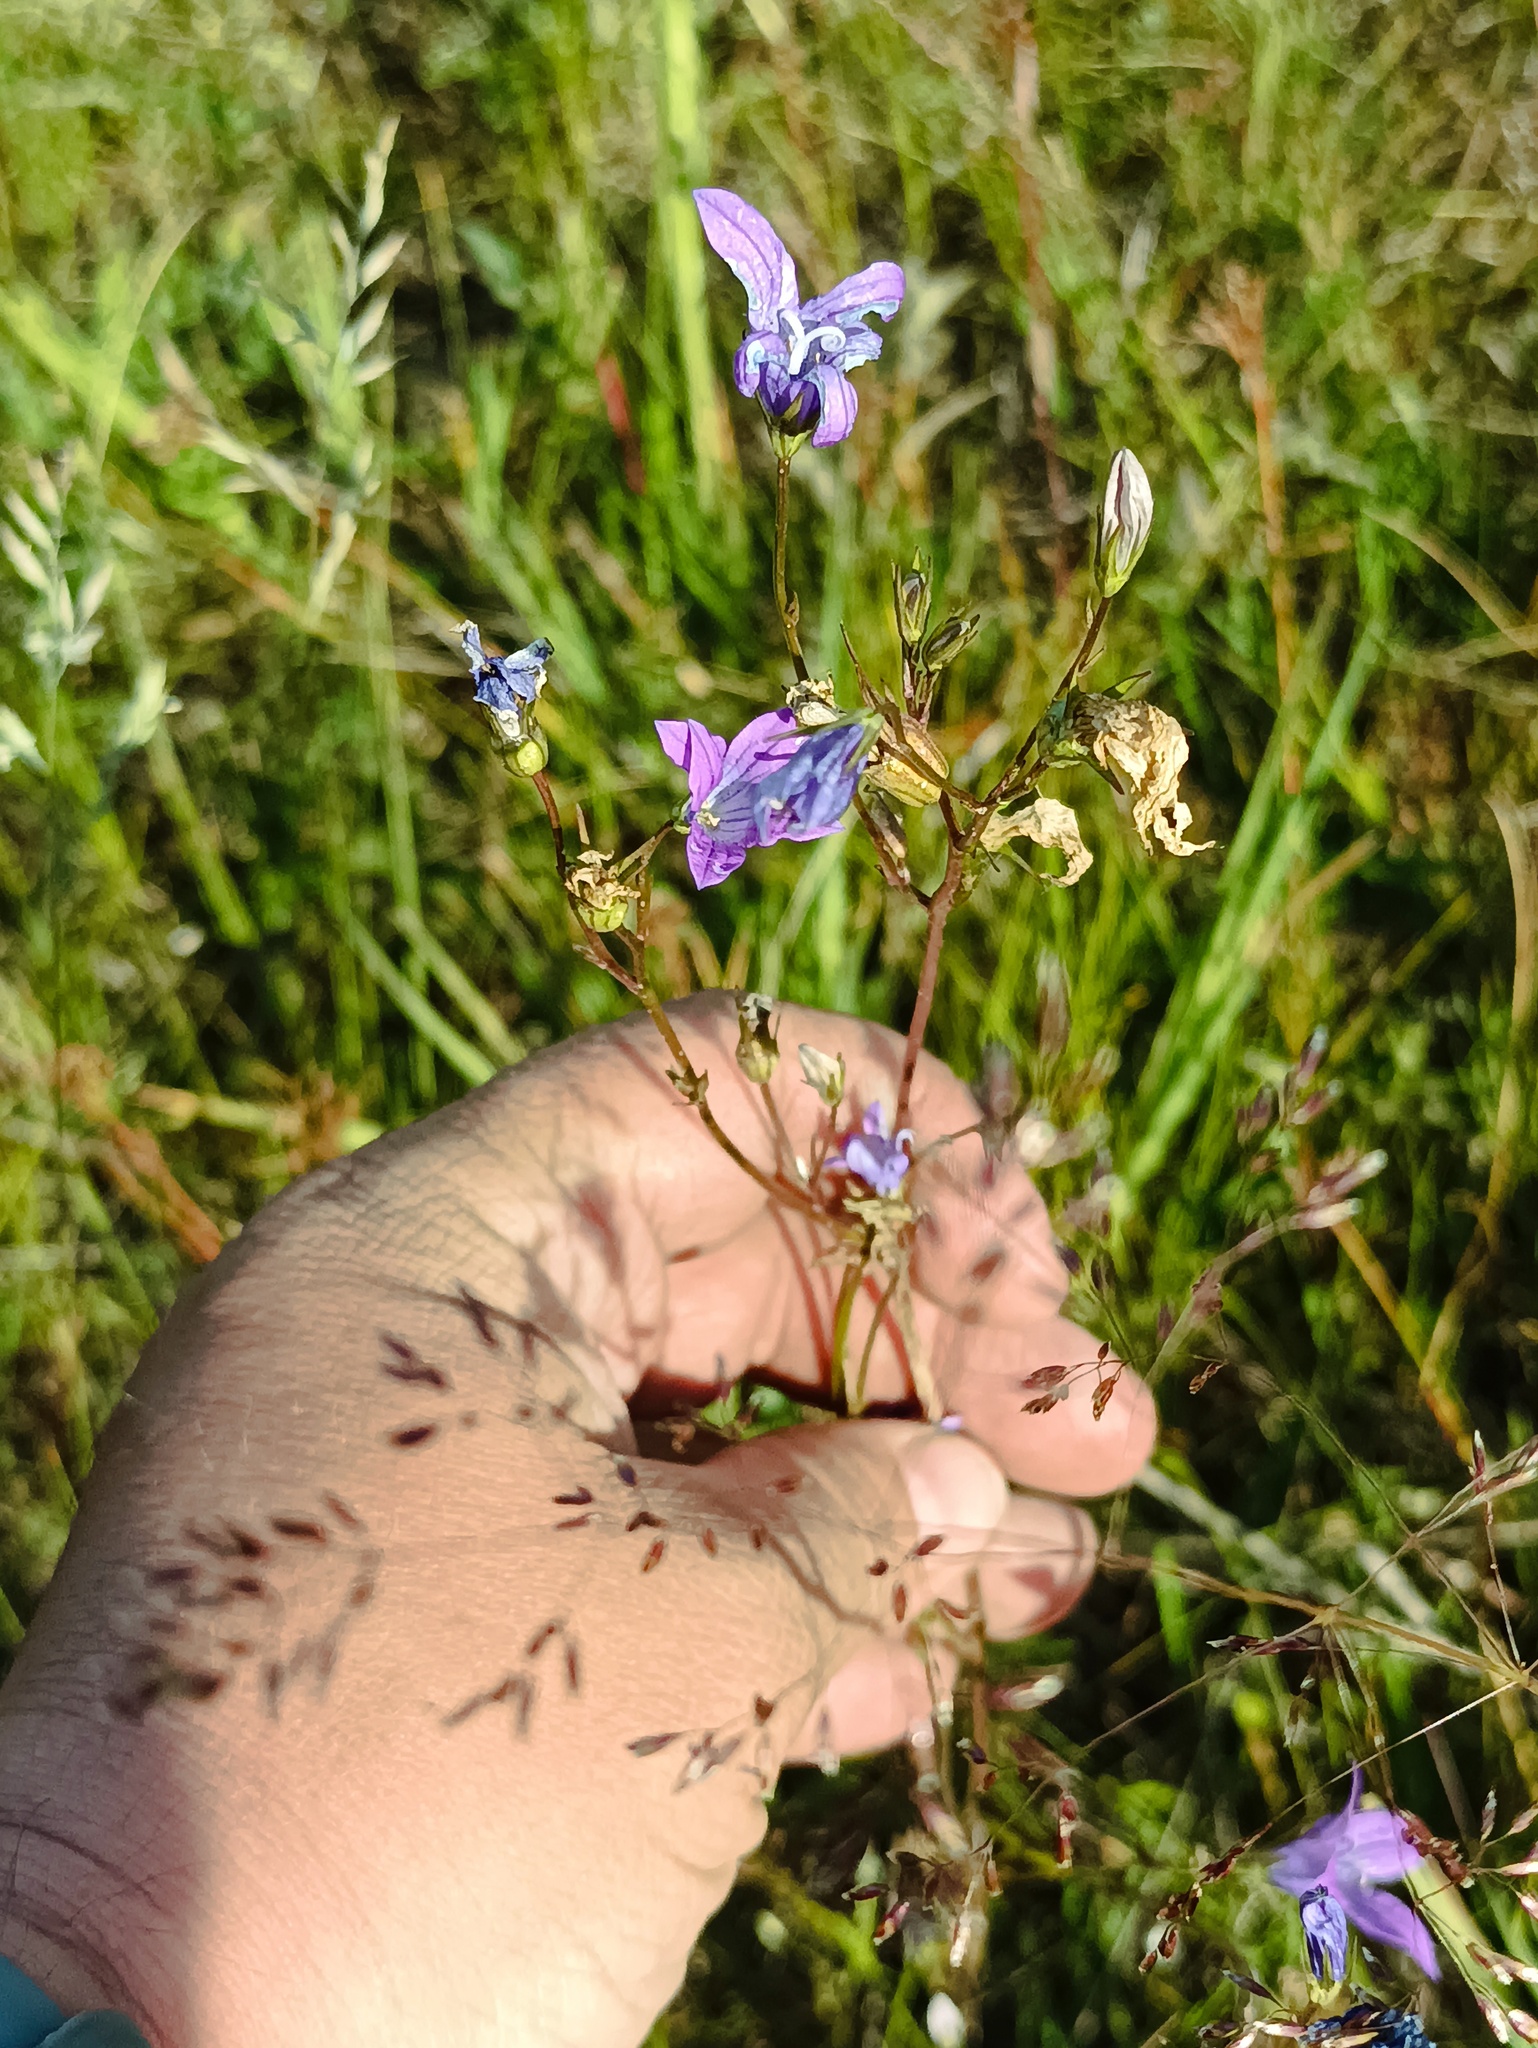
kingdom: Plantae
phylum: Tracheophyta
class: Magnoliopsida
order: Asterales
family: Campanulaceae
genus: Campanula
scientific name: Campanula patula
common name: Spreading bellflower
